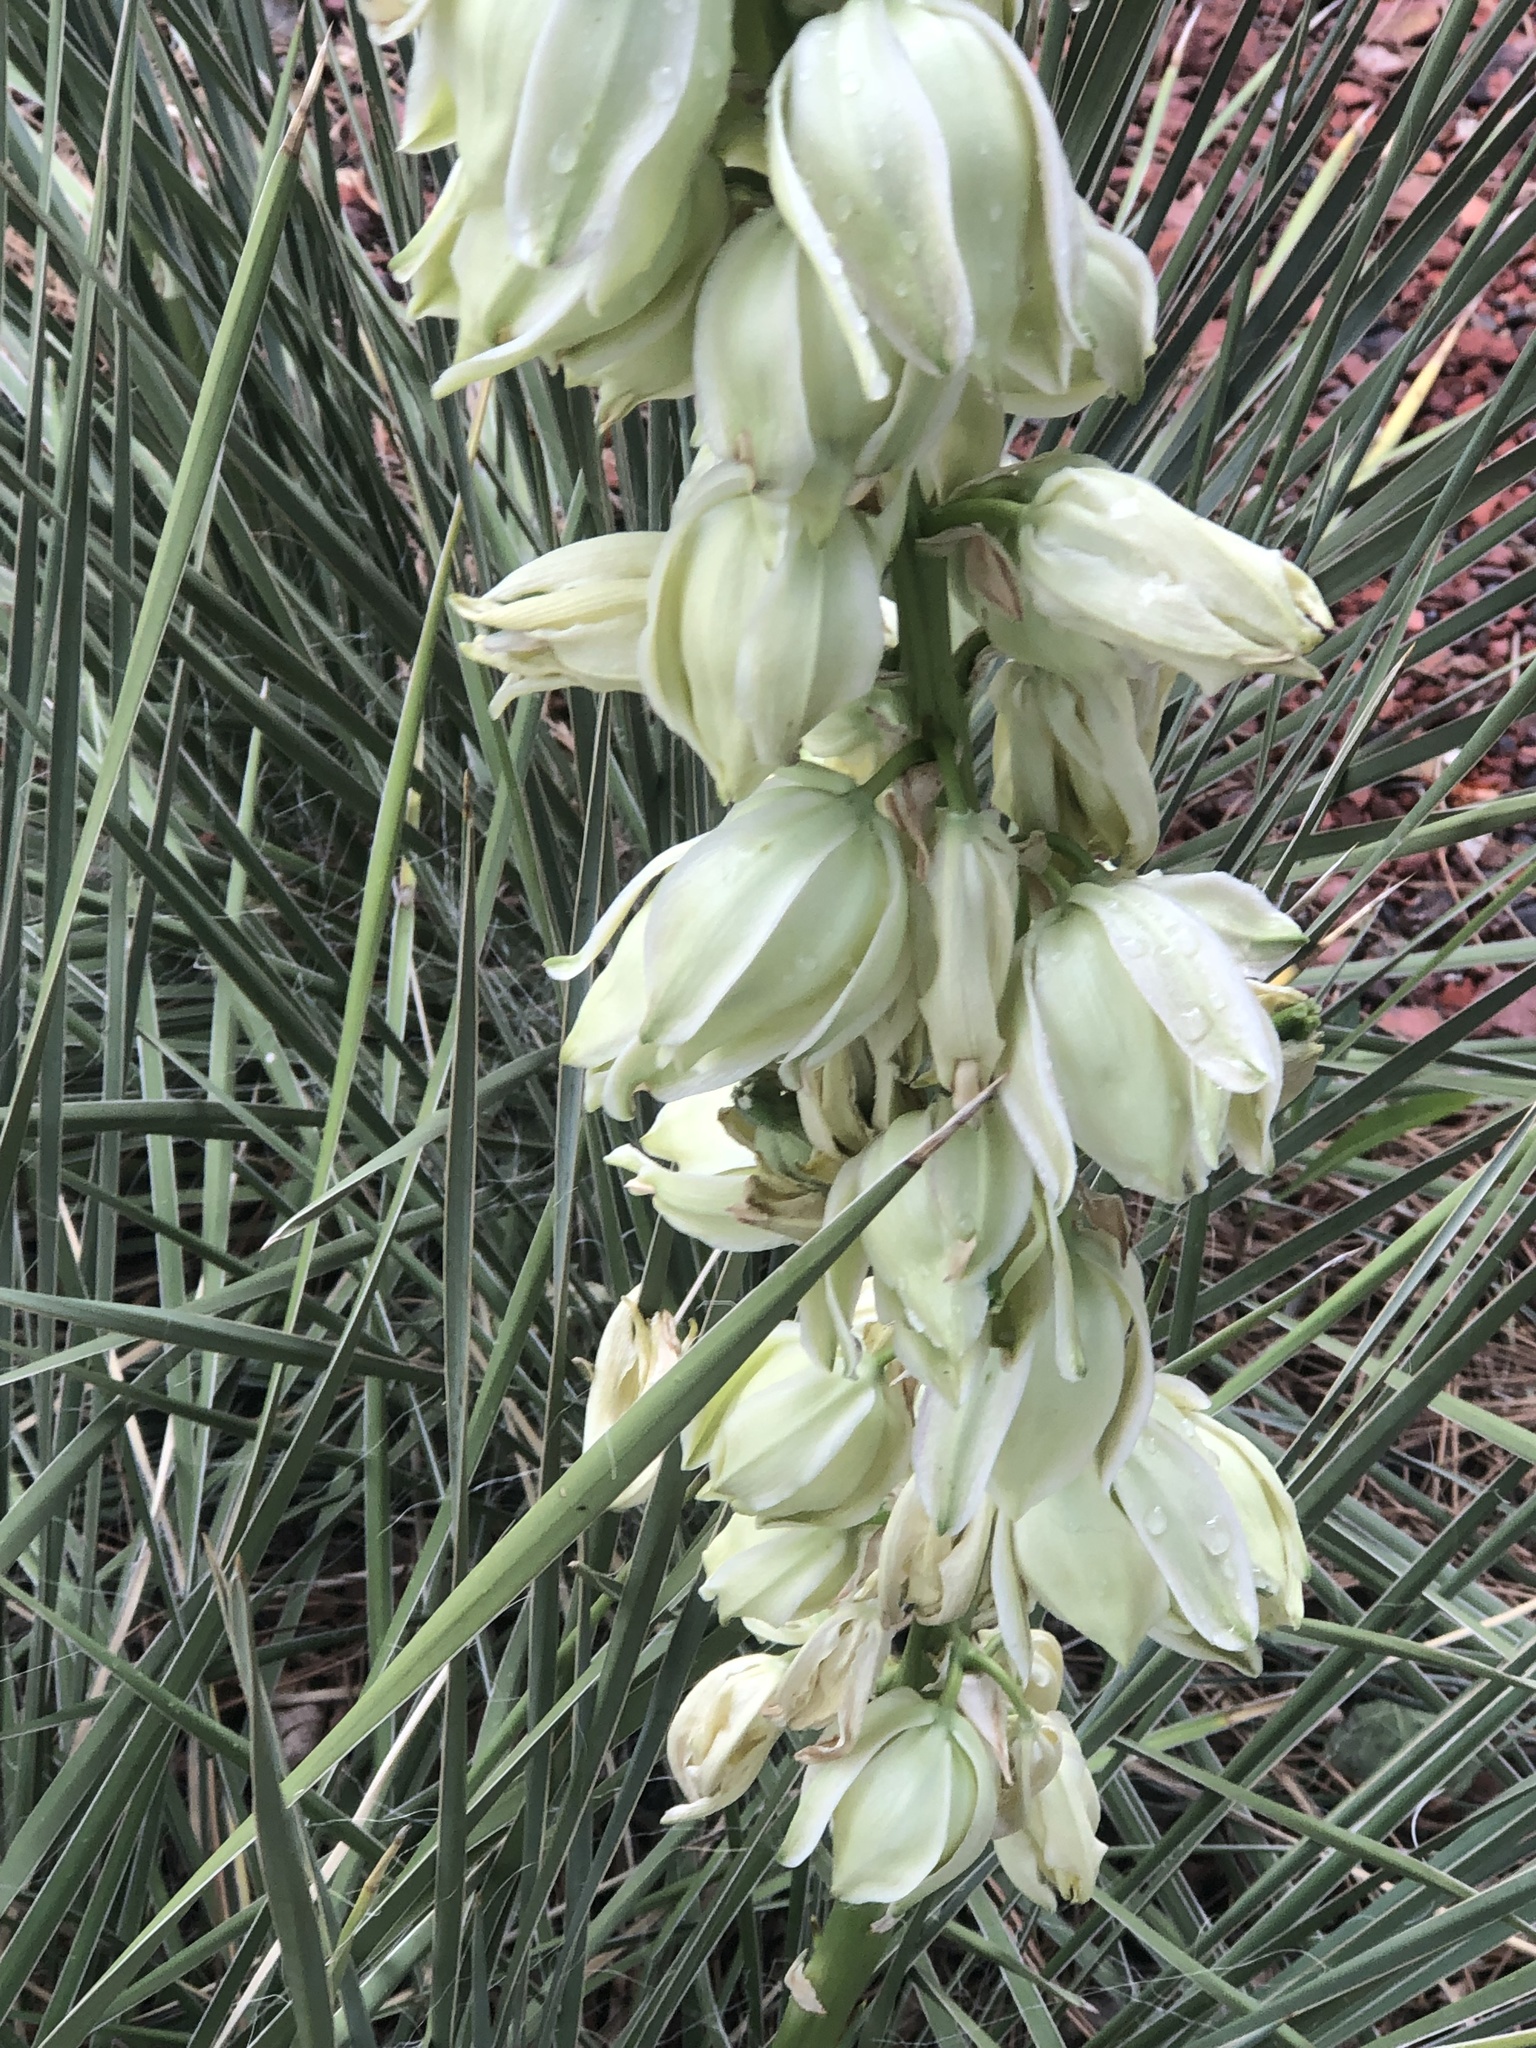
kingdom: Plantae
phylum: Tracheophyta
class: Liliopsida
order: Asparagales
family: Asparagaceae
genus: Yucca
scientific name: Yucca glauca
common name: Great plains yucca
